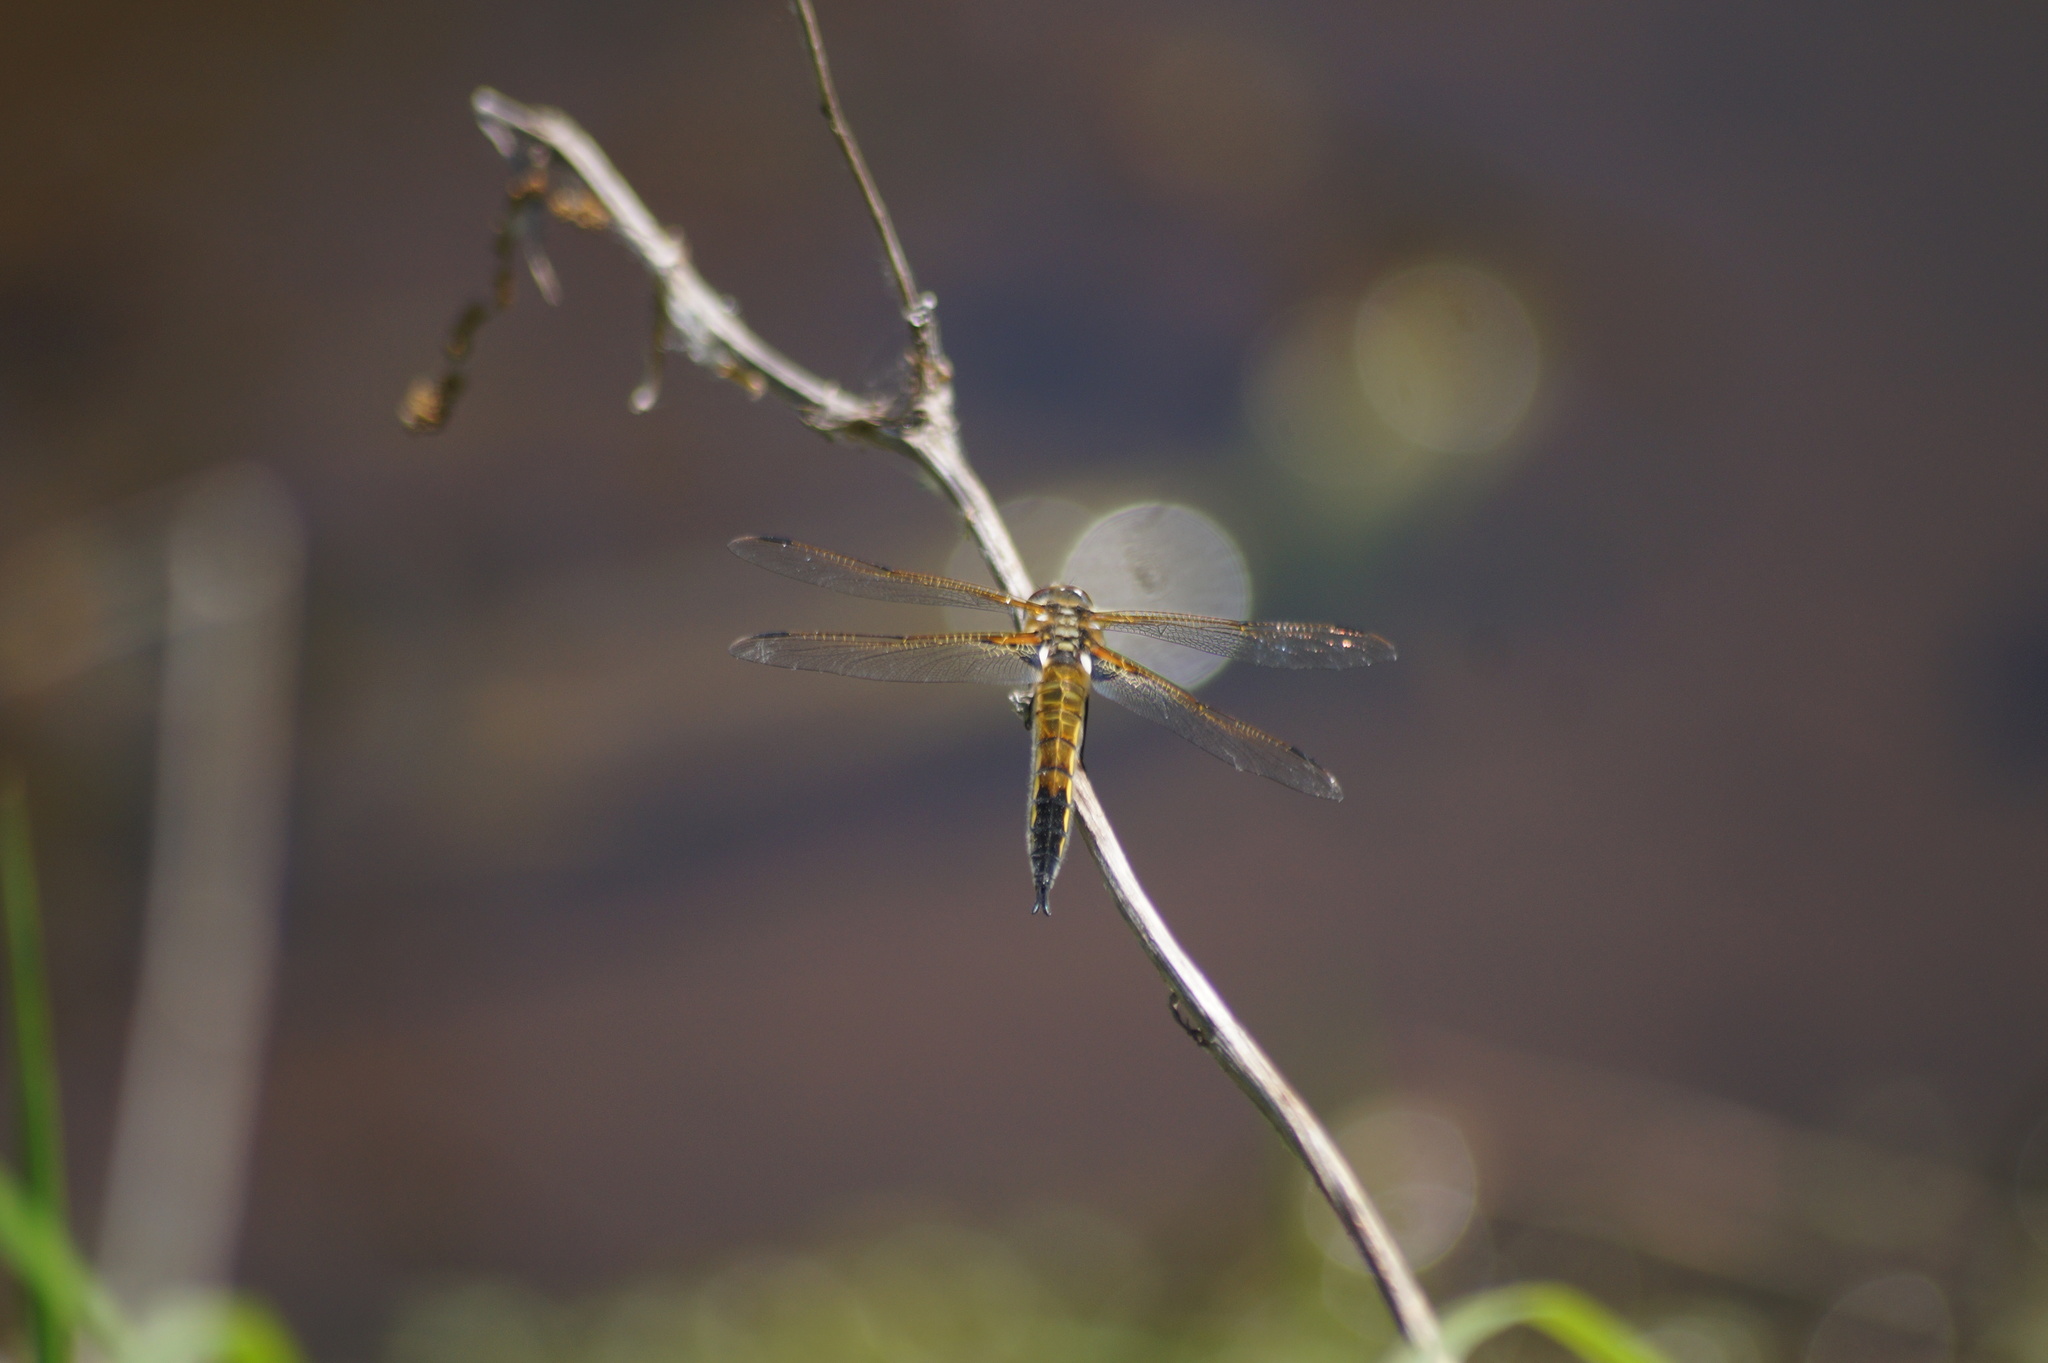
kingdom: Animalia
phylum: Arthropoda
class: Insecta
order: Odonata
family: Libellulidae
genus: Libellula
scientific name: Libellula quadrimaculata
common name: Four-spotted chaser
